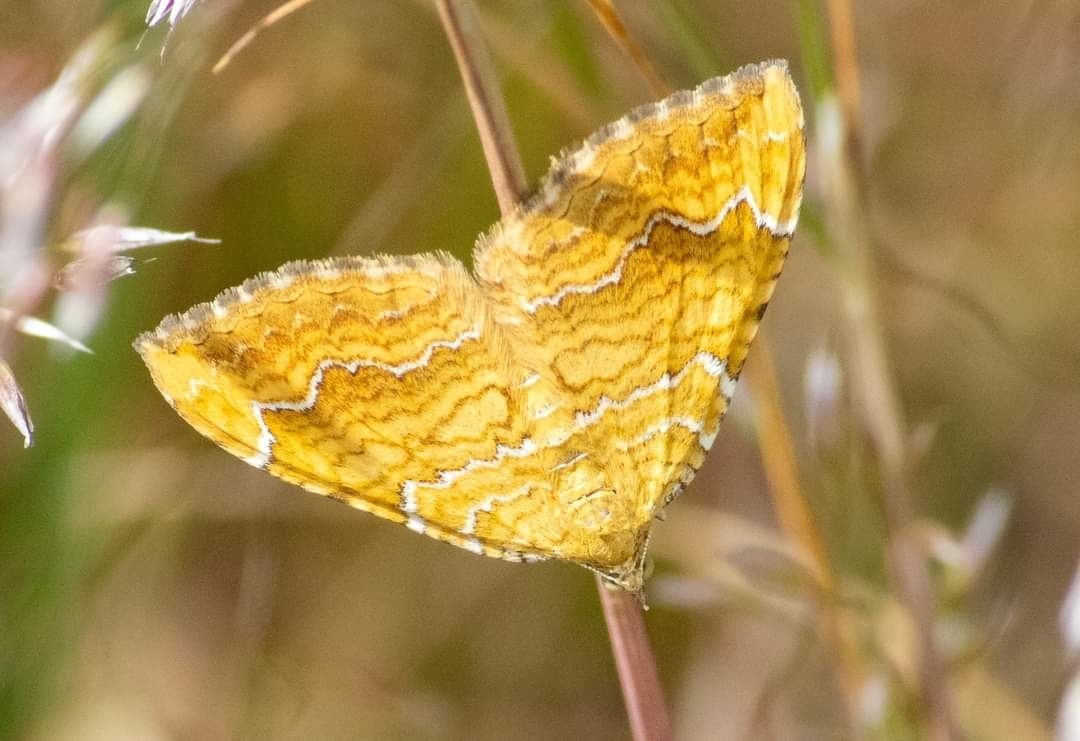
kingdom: Animalia
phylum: Arthropoda
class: Insecta
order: Lepidoptera
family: Geometridae
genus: Camptogramma
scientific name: Camptogramma bilineata
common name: Yellow shell
